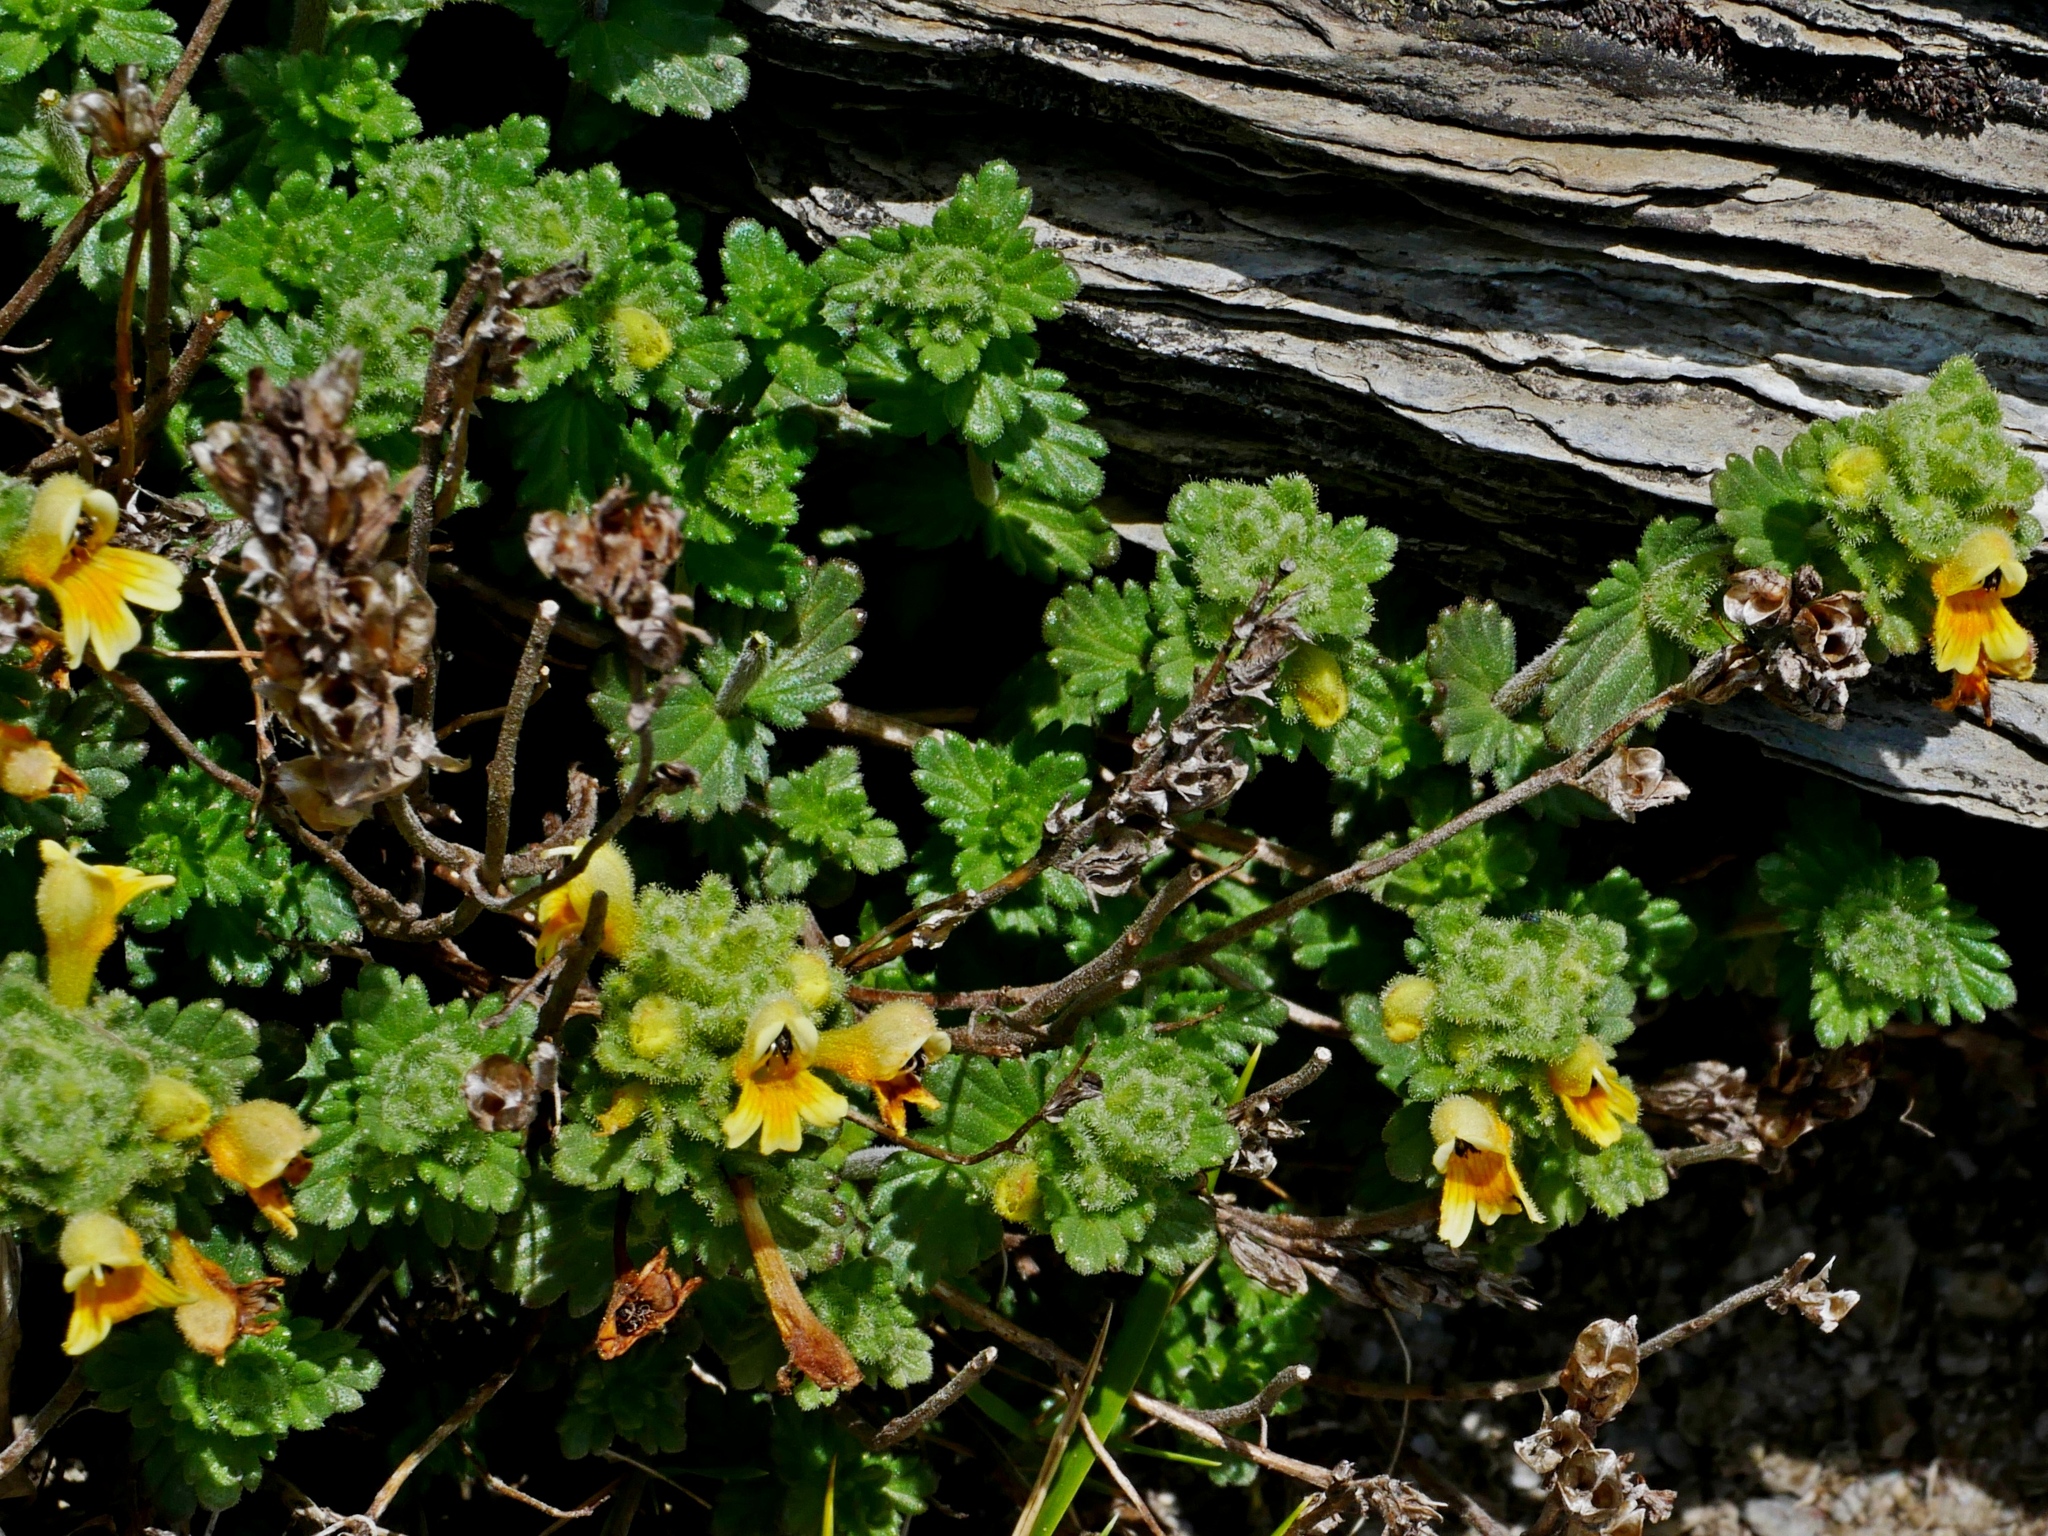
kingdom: Plantae
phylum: Tracheophyta
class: Magnoliopsida
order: Lamiales
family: Orobanchaceae
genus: Euphrasia
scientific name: Euphrasia nankotaizanensis
